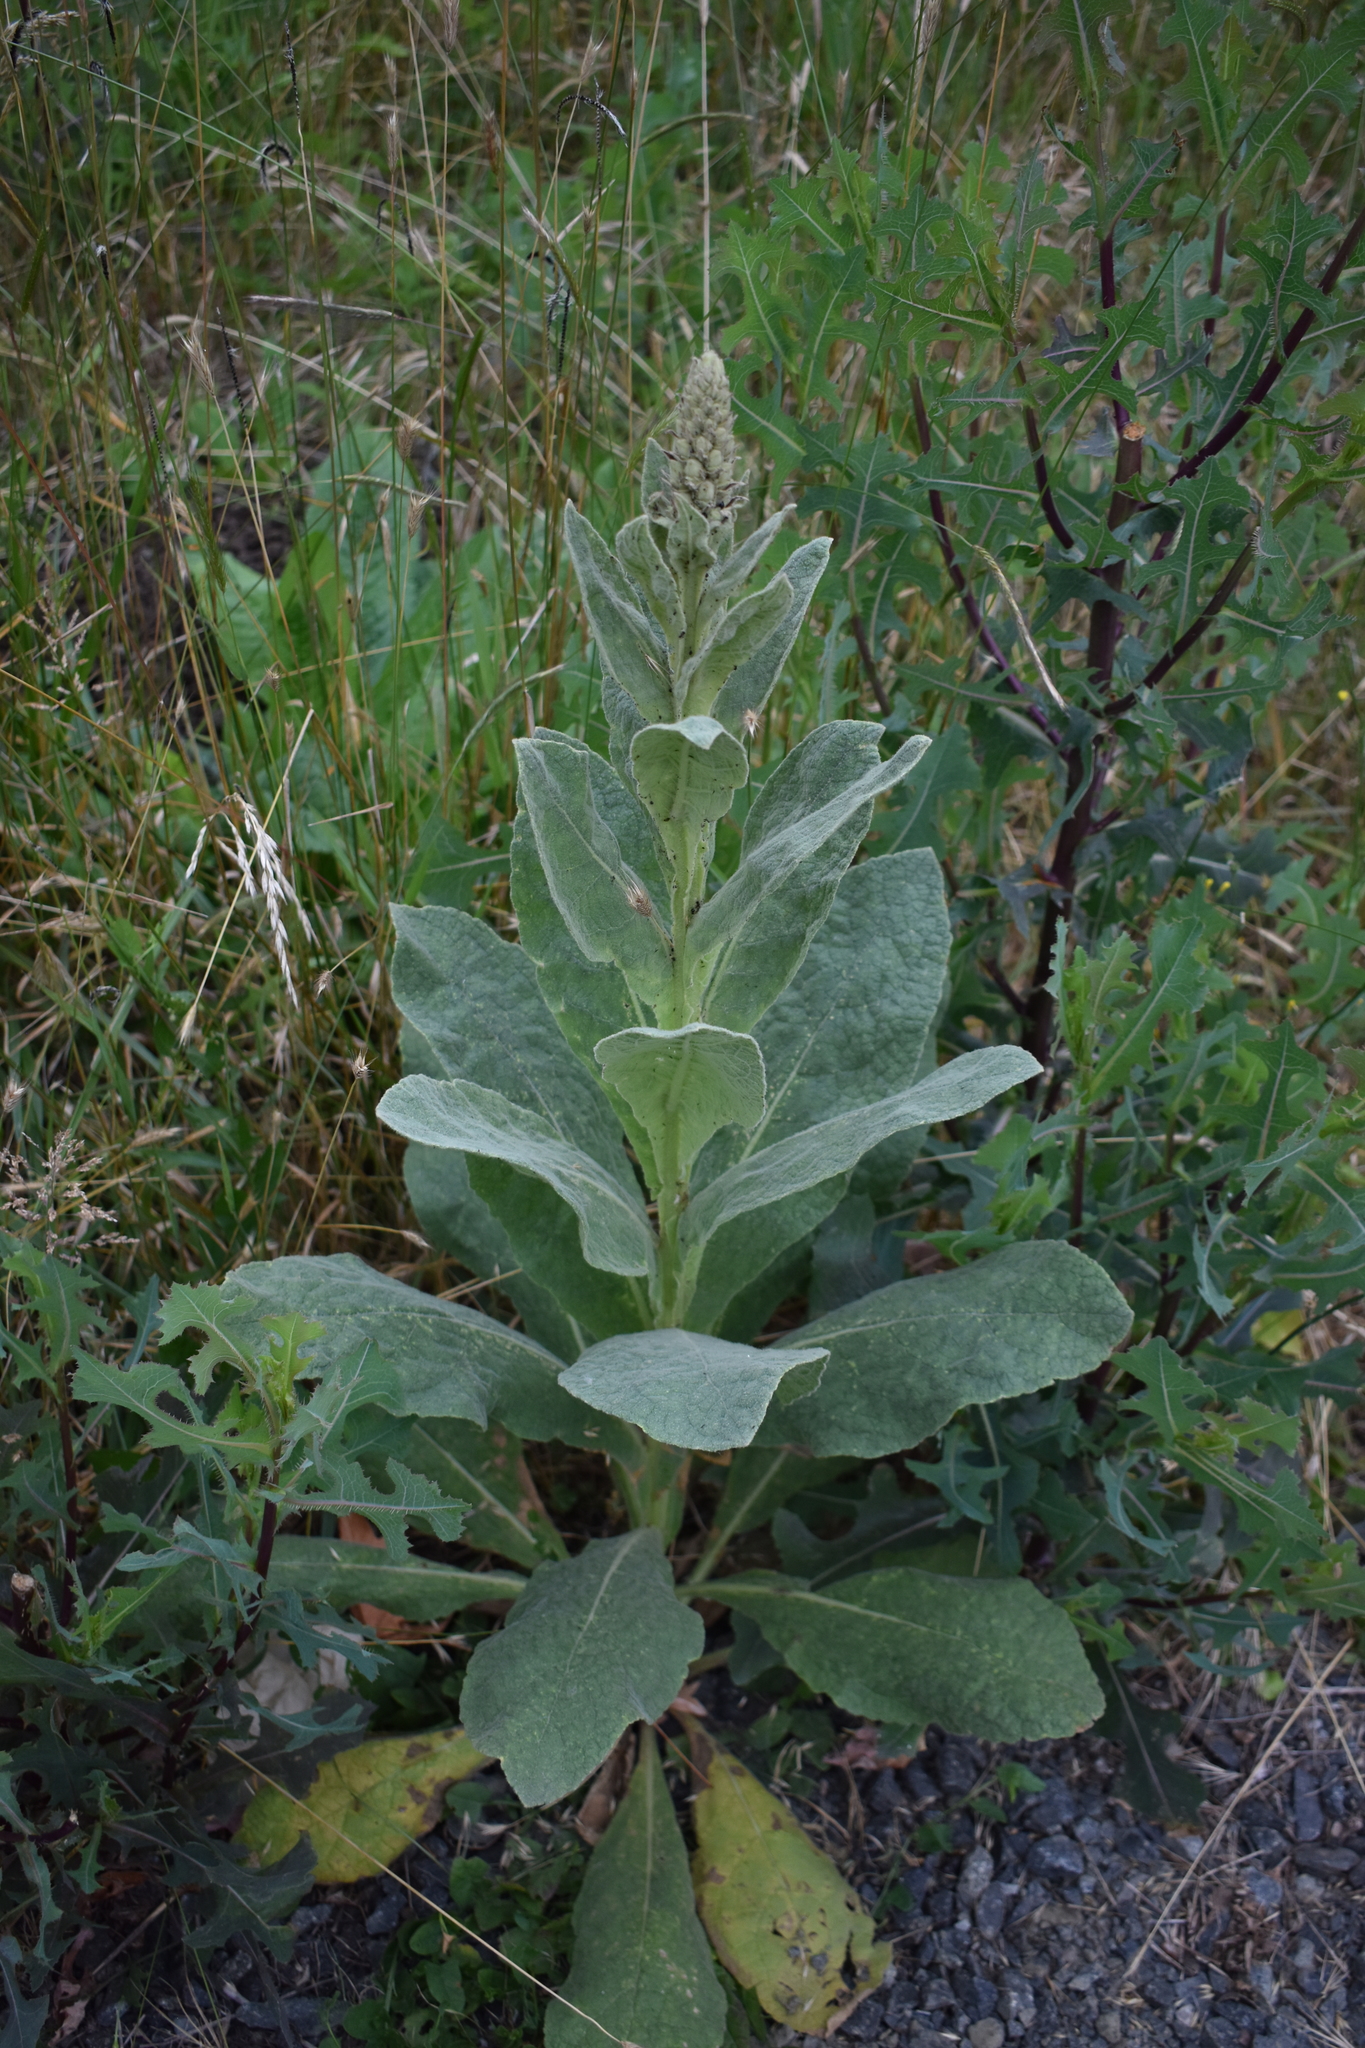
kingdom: Plantae
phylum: Tracheophyta
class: Magnoliopsida
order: Lamiales
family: Scrophulariaceae
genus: Verbascum
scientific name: Verbascum thapsus
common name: Common mullein
